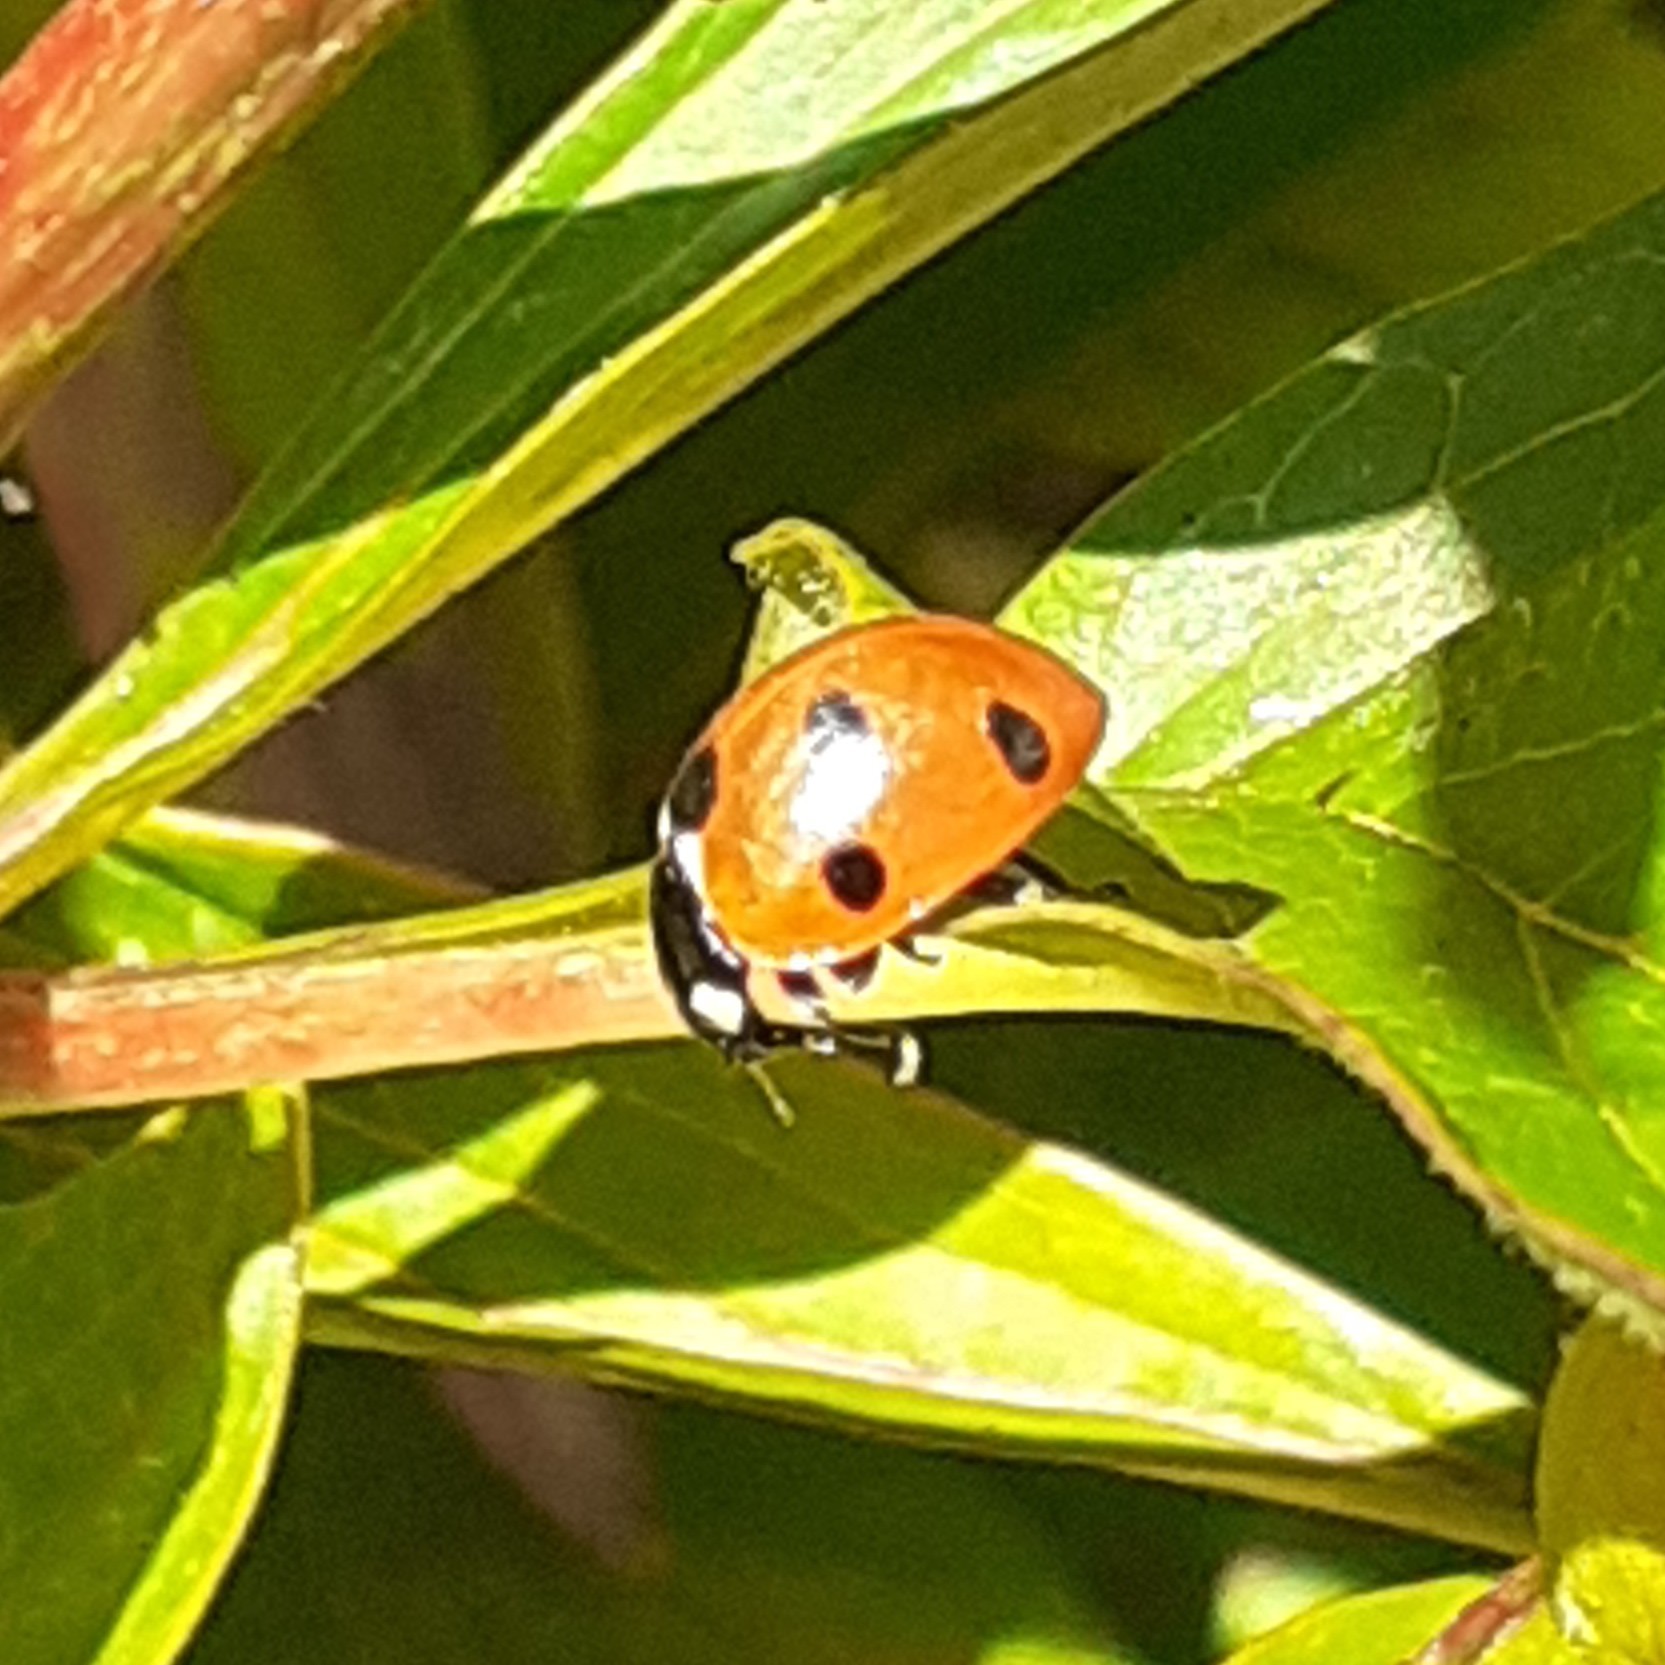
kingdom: Animalia
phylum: Arthropoda
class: Insecta
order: Coleoptera
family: Coccinellidae
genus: Coccinella
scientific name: Coccinella septempunctata
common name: Sevenspotted lady beetle
